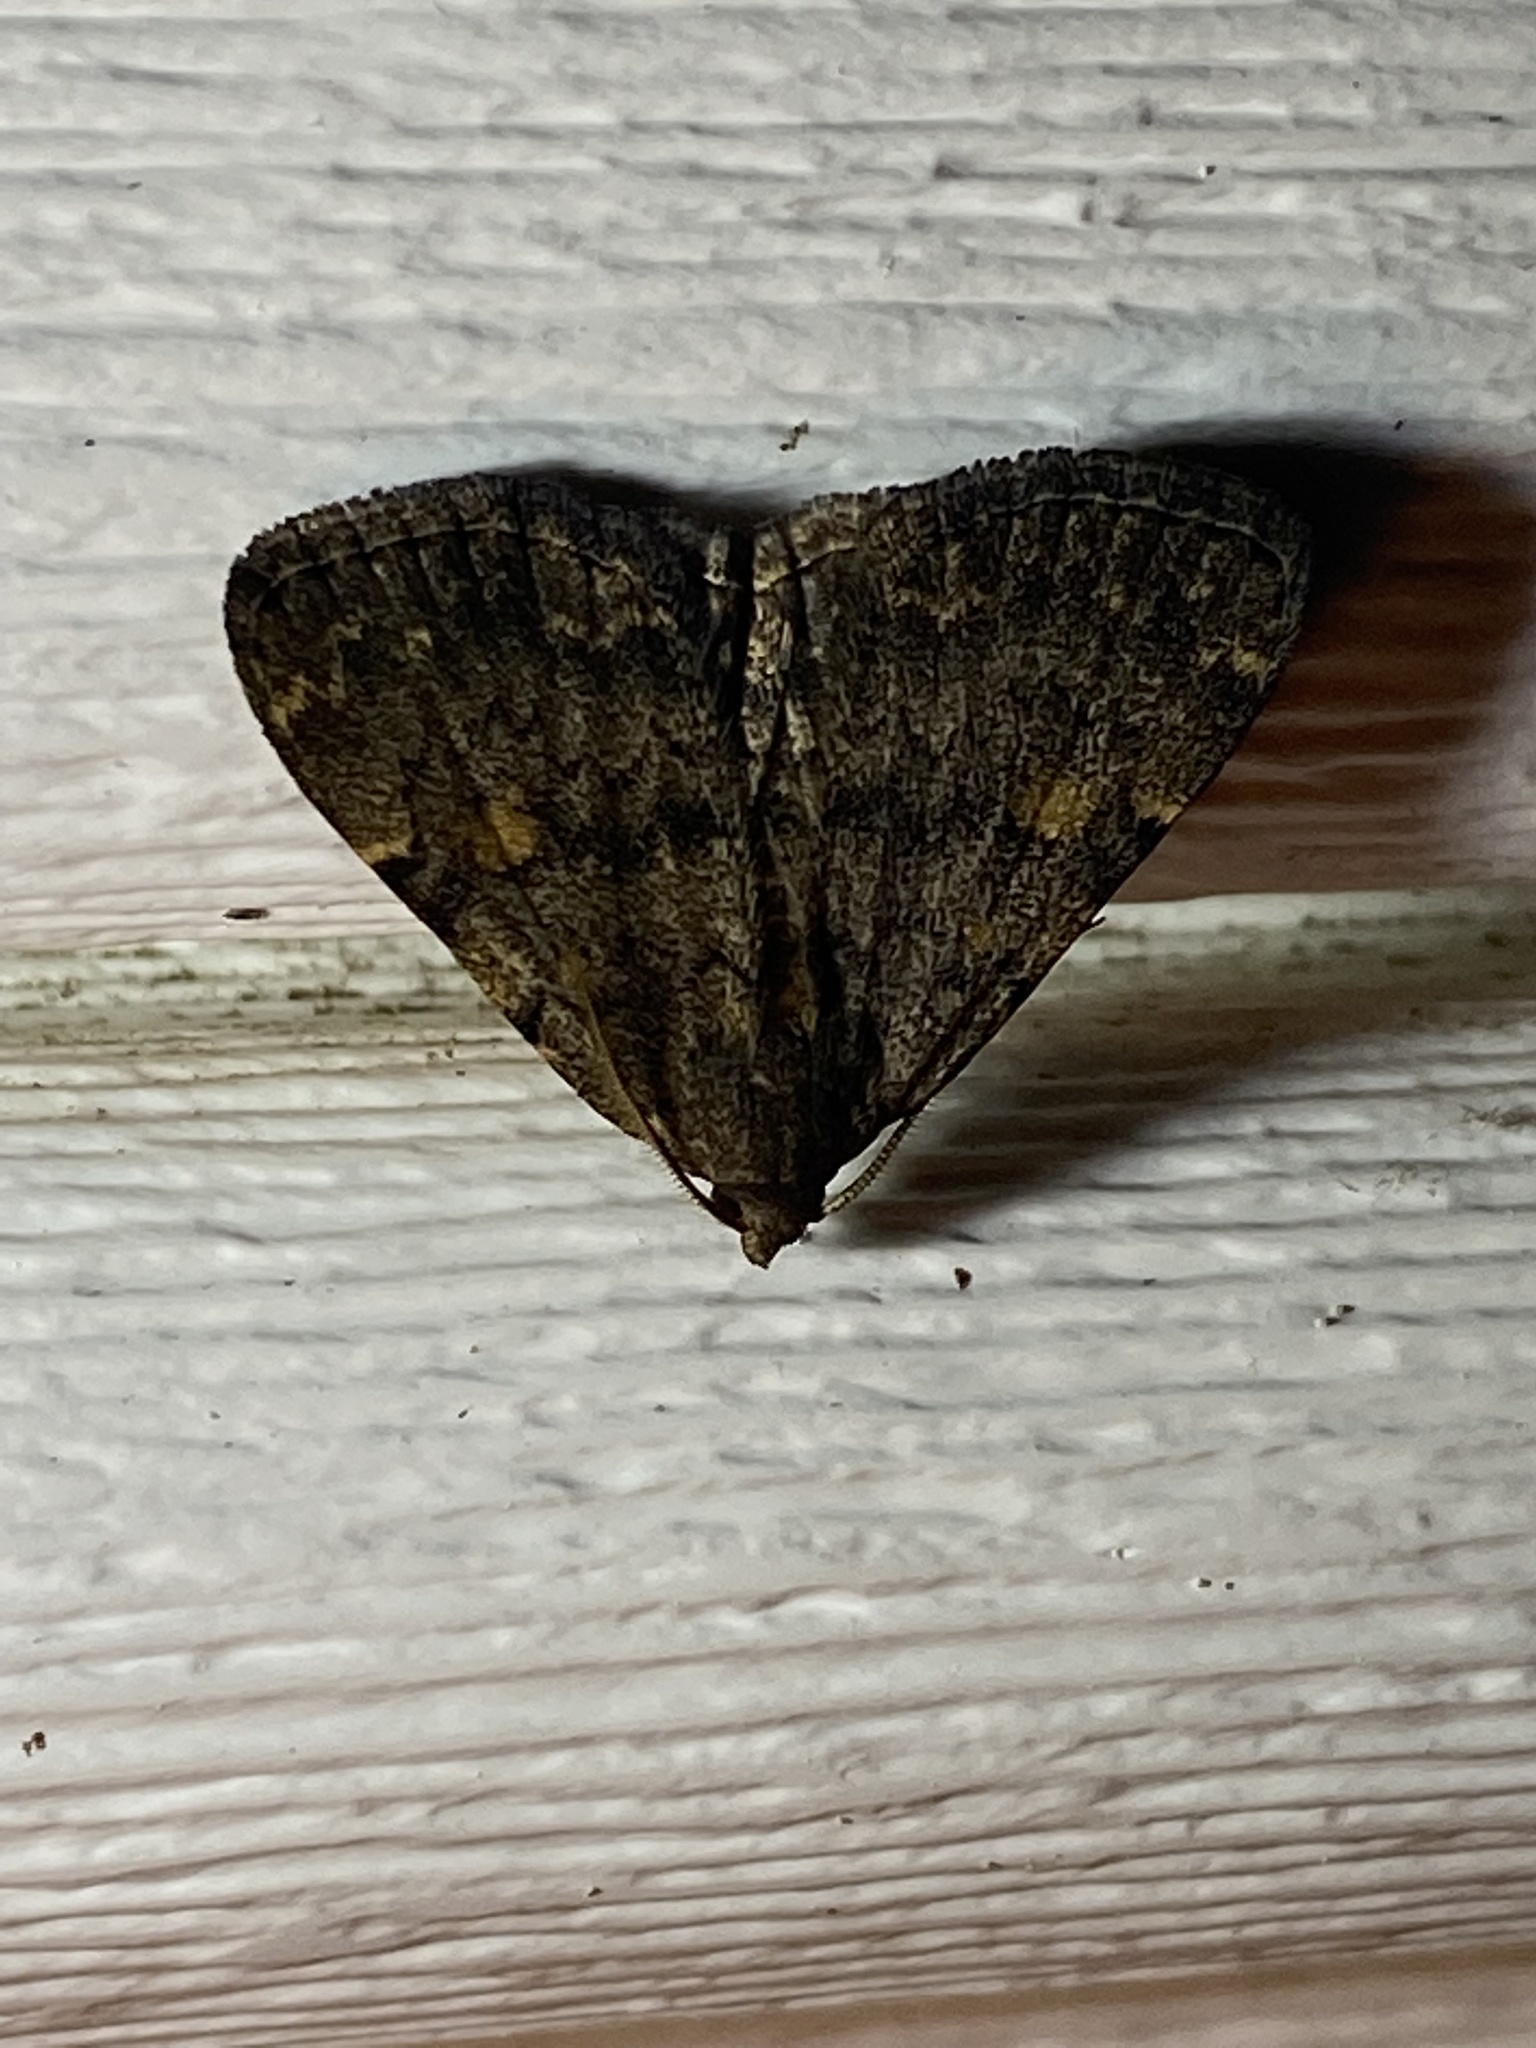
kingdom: Animalia
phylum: Arthropoda
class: Insecta
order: Lepidoptera
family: Erebidae
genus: Idia
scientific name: Idia aemula
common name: Common idia moth
